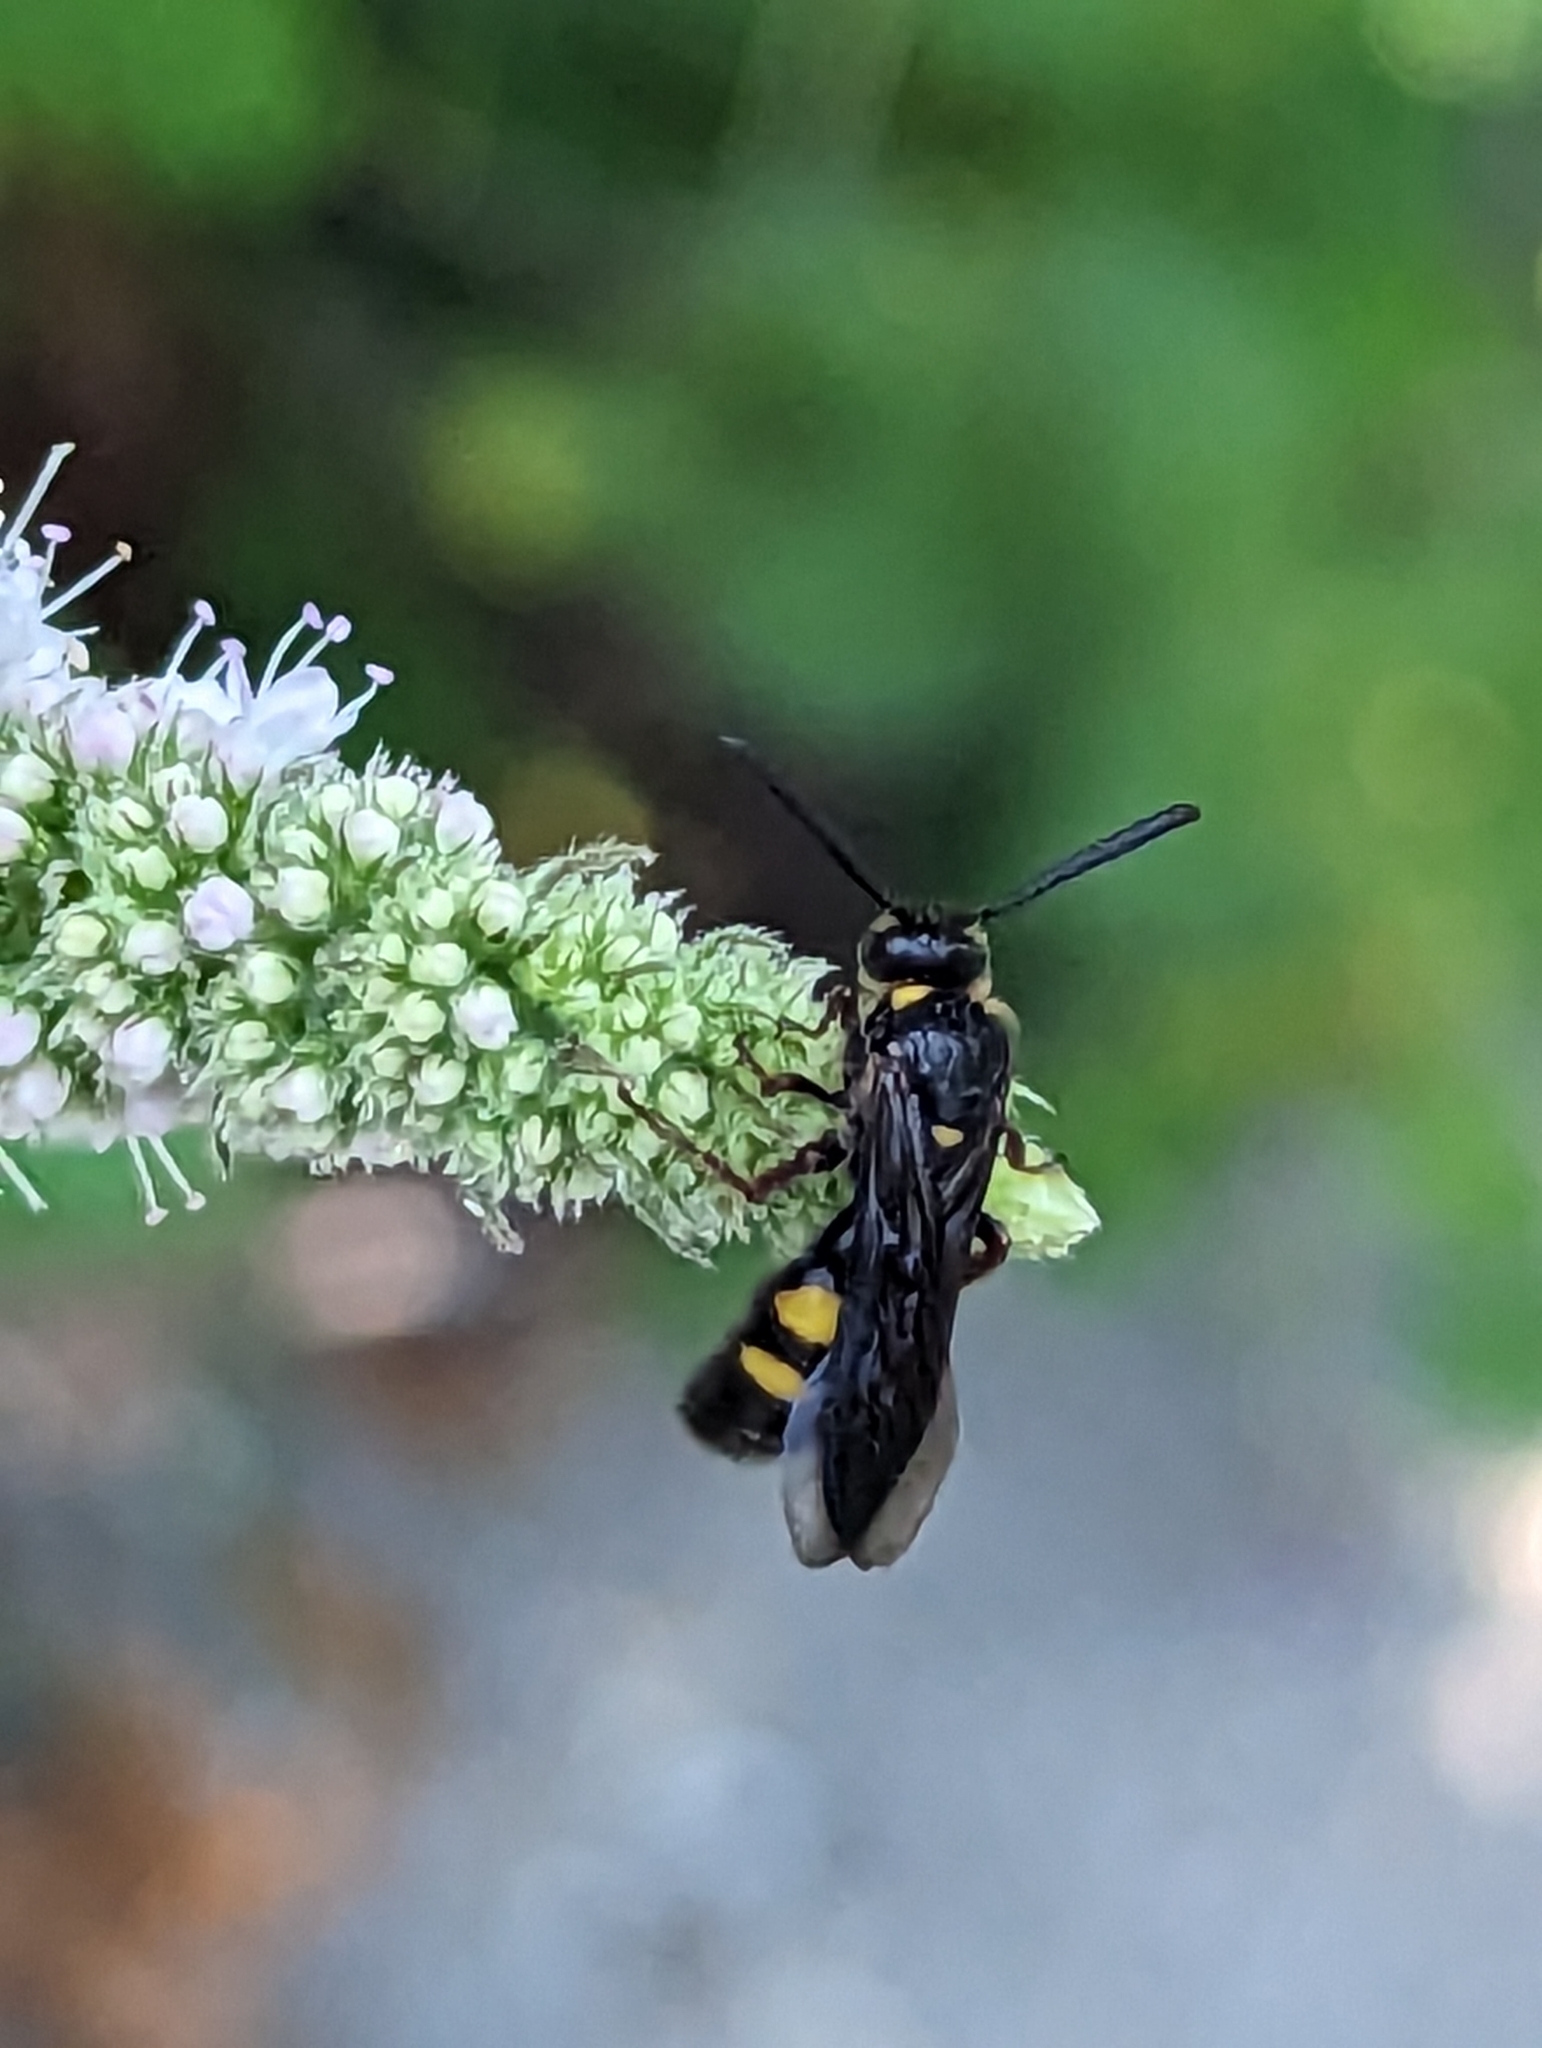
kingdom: Animalia
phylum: Arthropoda
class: Insecta
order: Hymenoptera
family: Scoliidae
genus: Scolia
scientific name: Scolia nobilitata
